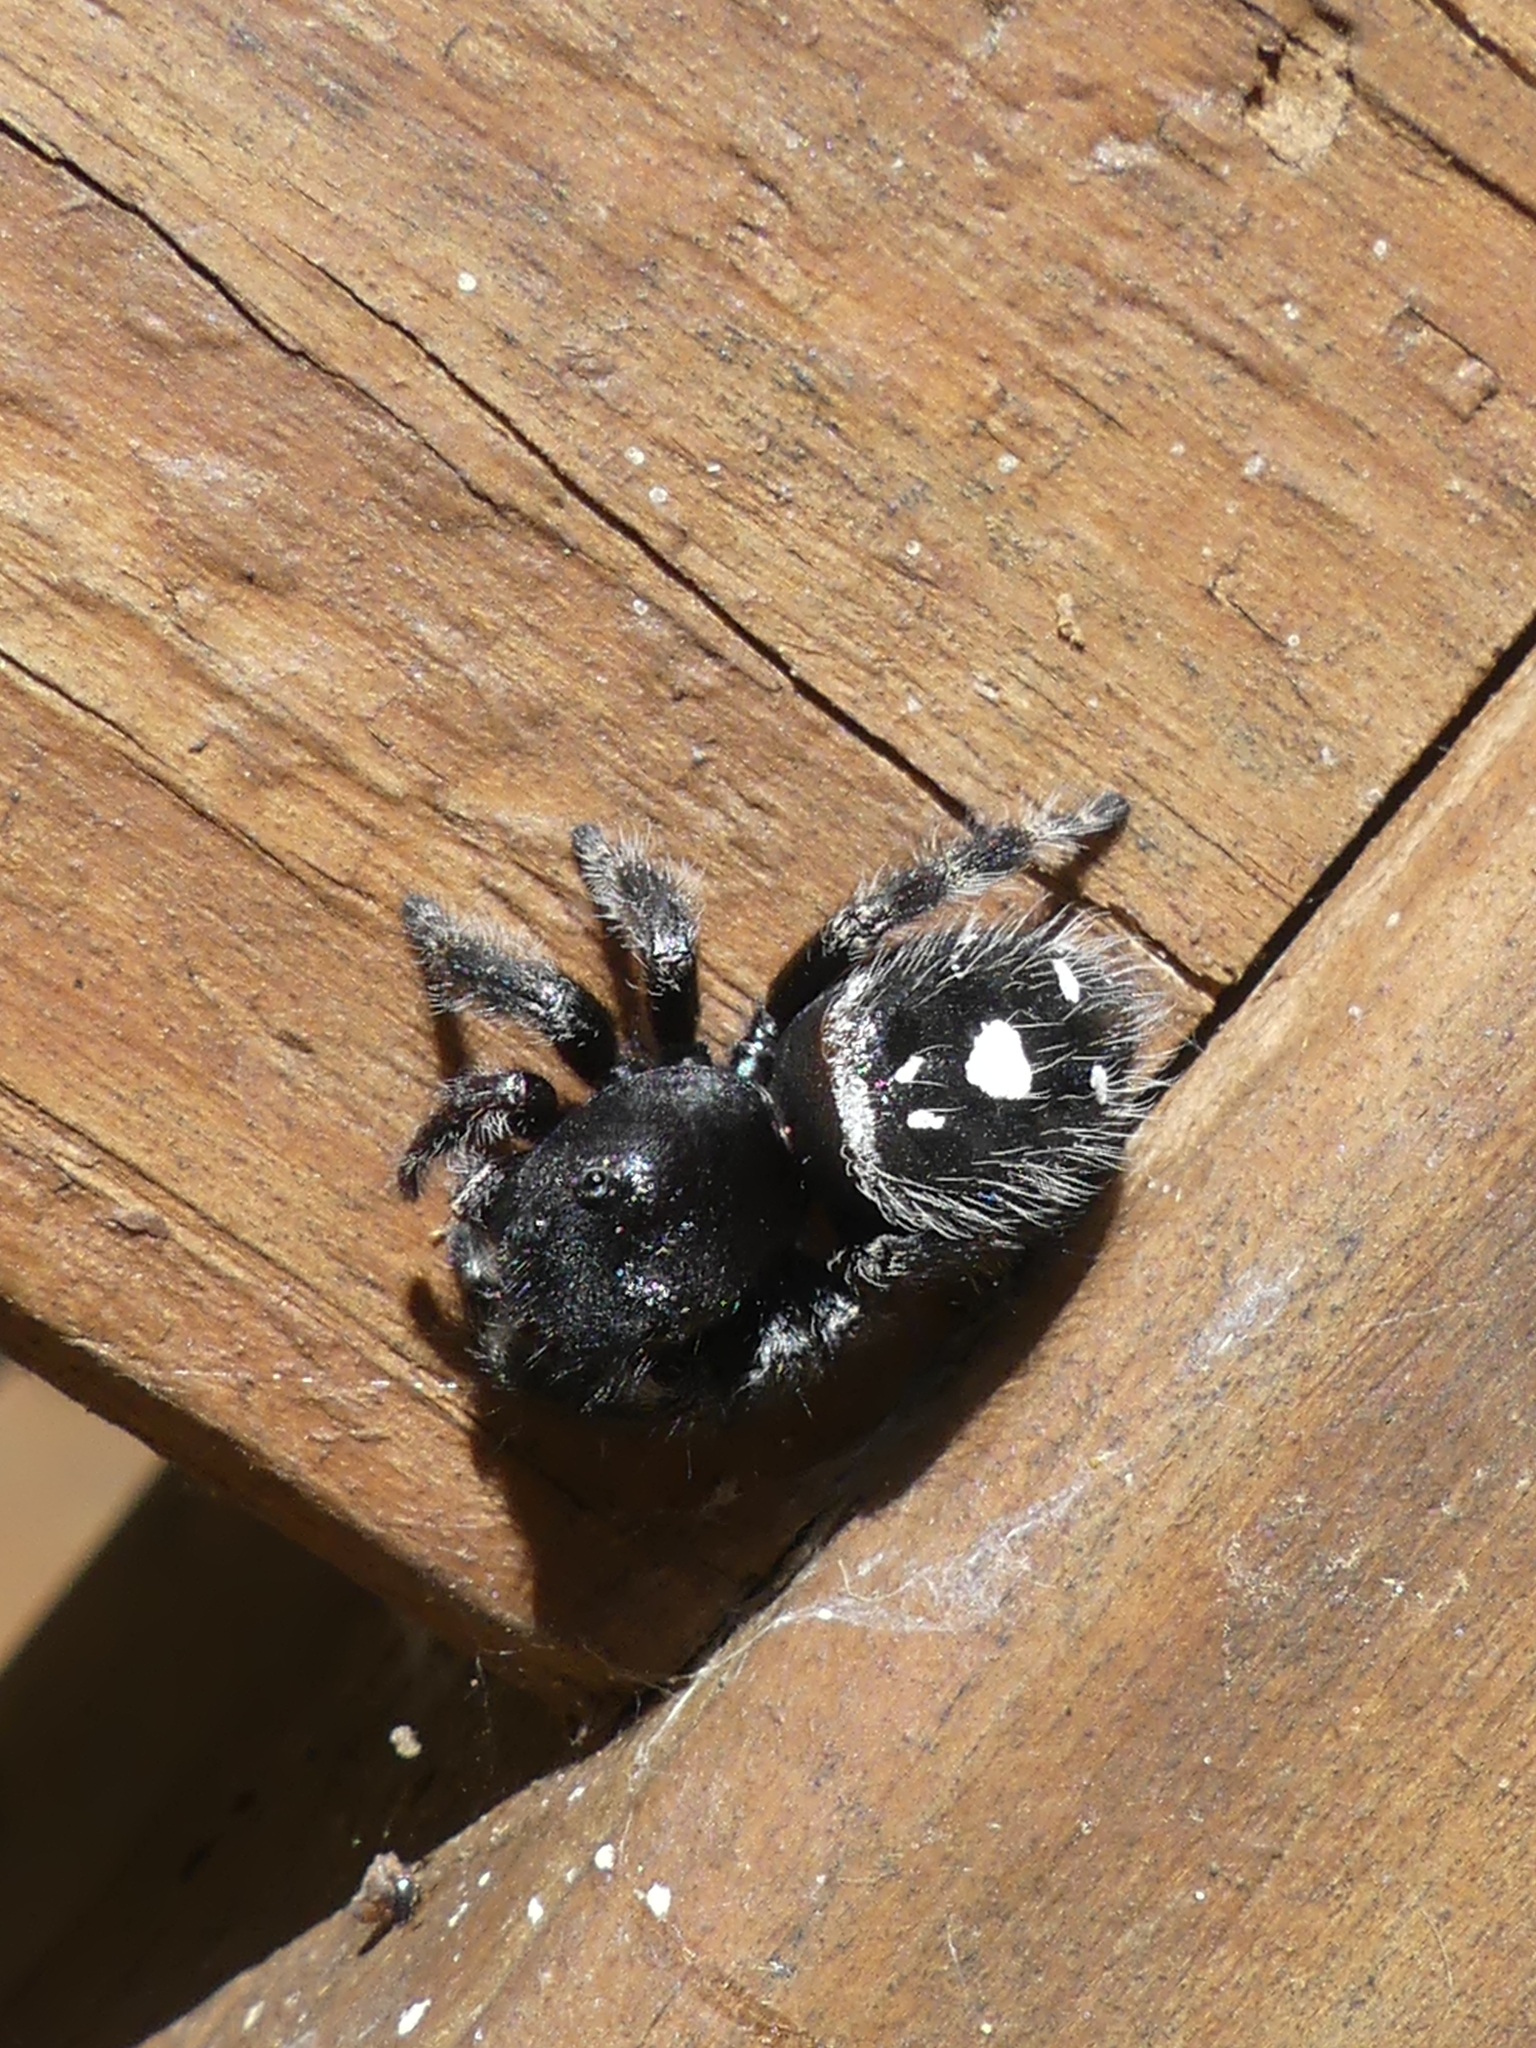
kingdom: Animalia
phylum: Arthropoda
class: Arachnida
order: Araneae
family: Salticidae
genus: Phidippus
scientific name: Phidippus audax
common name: Bold jumper
